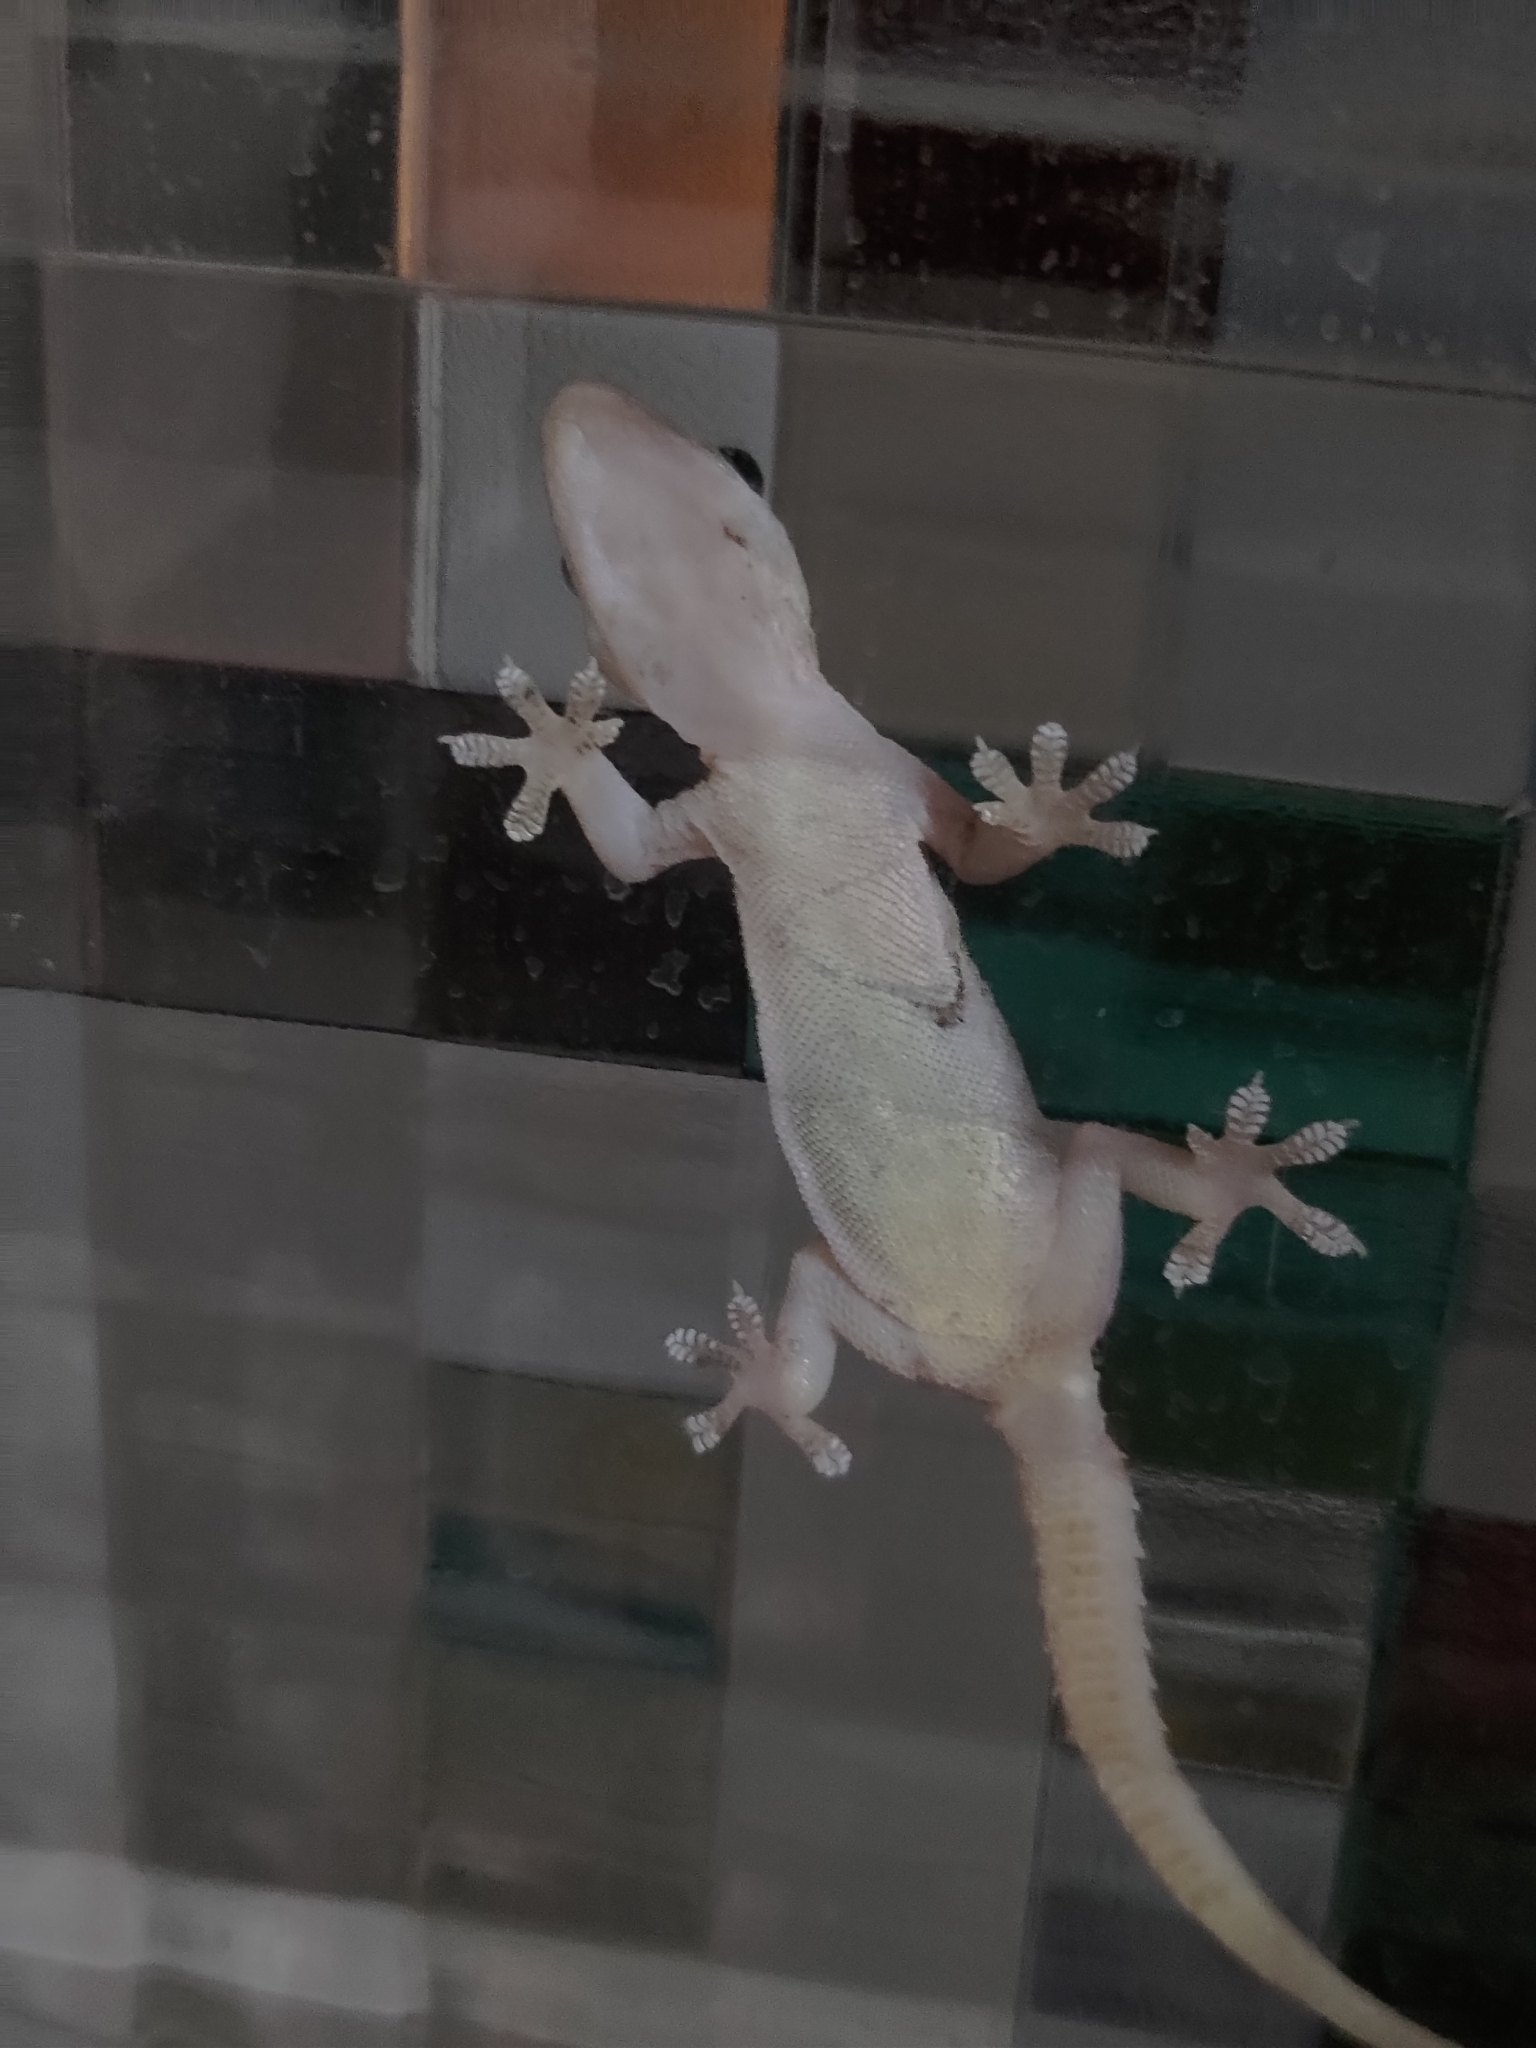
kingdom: Animalia
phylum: Chordata
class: Squamata
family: Gekkonidae
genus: Hemidactylus
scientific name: Hemidactylus frenatus
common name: Common house gecko
